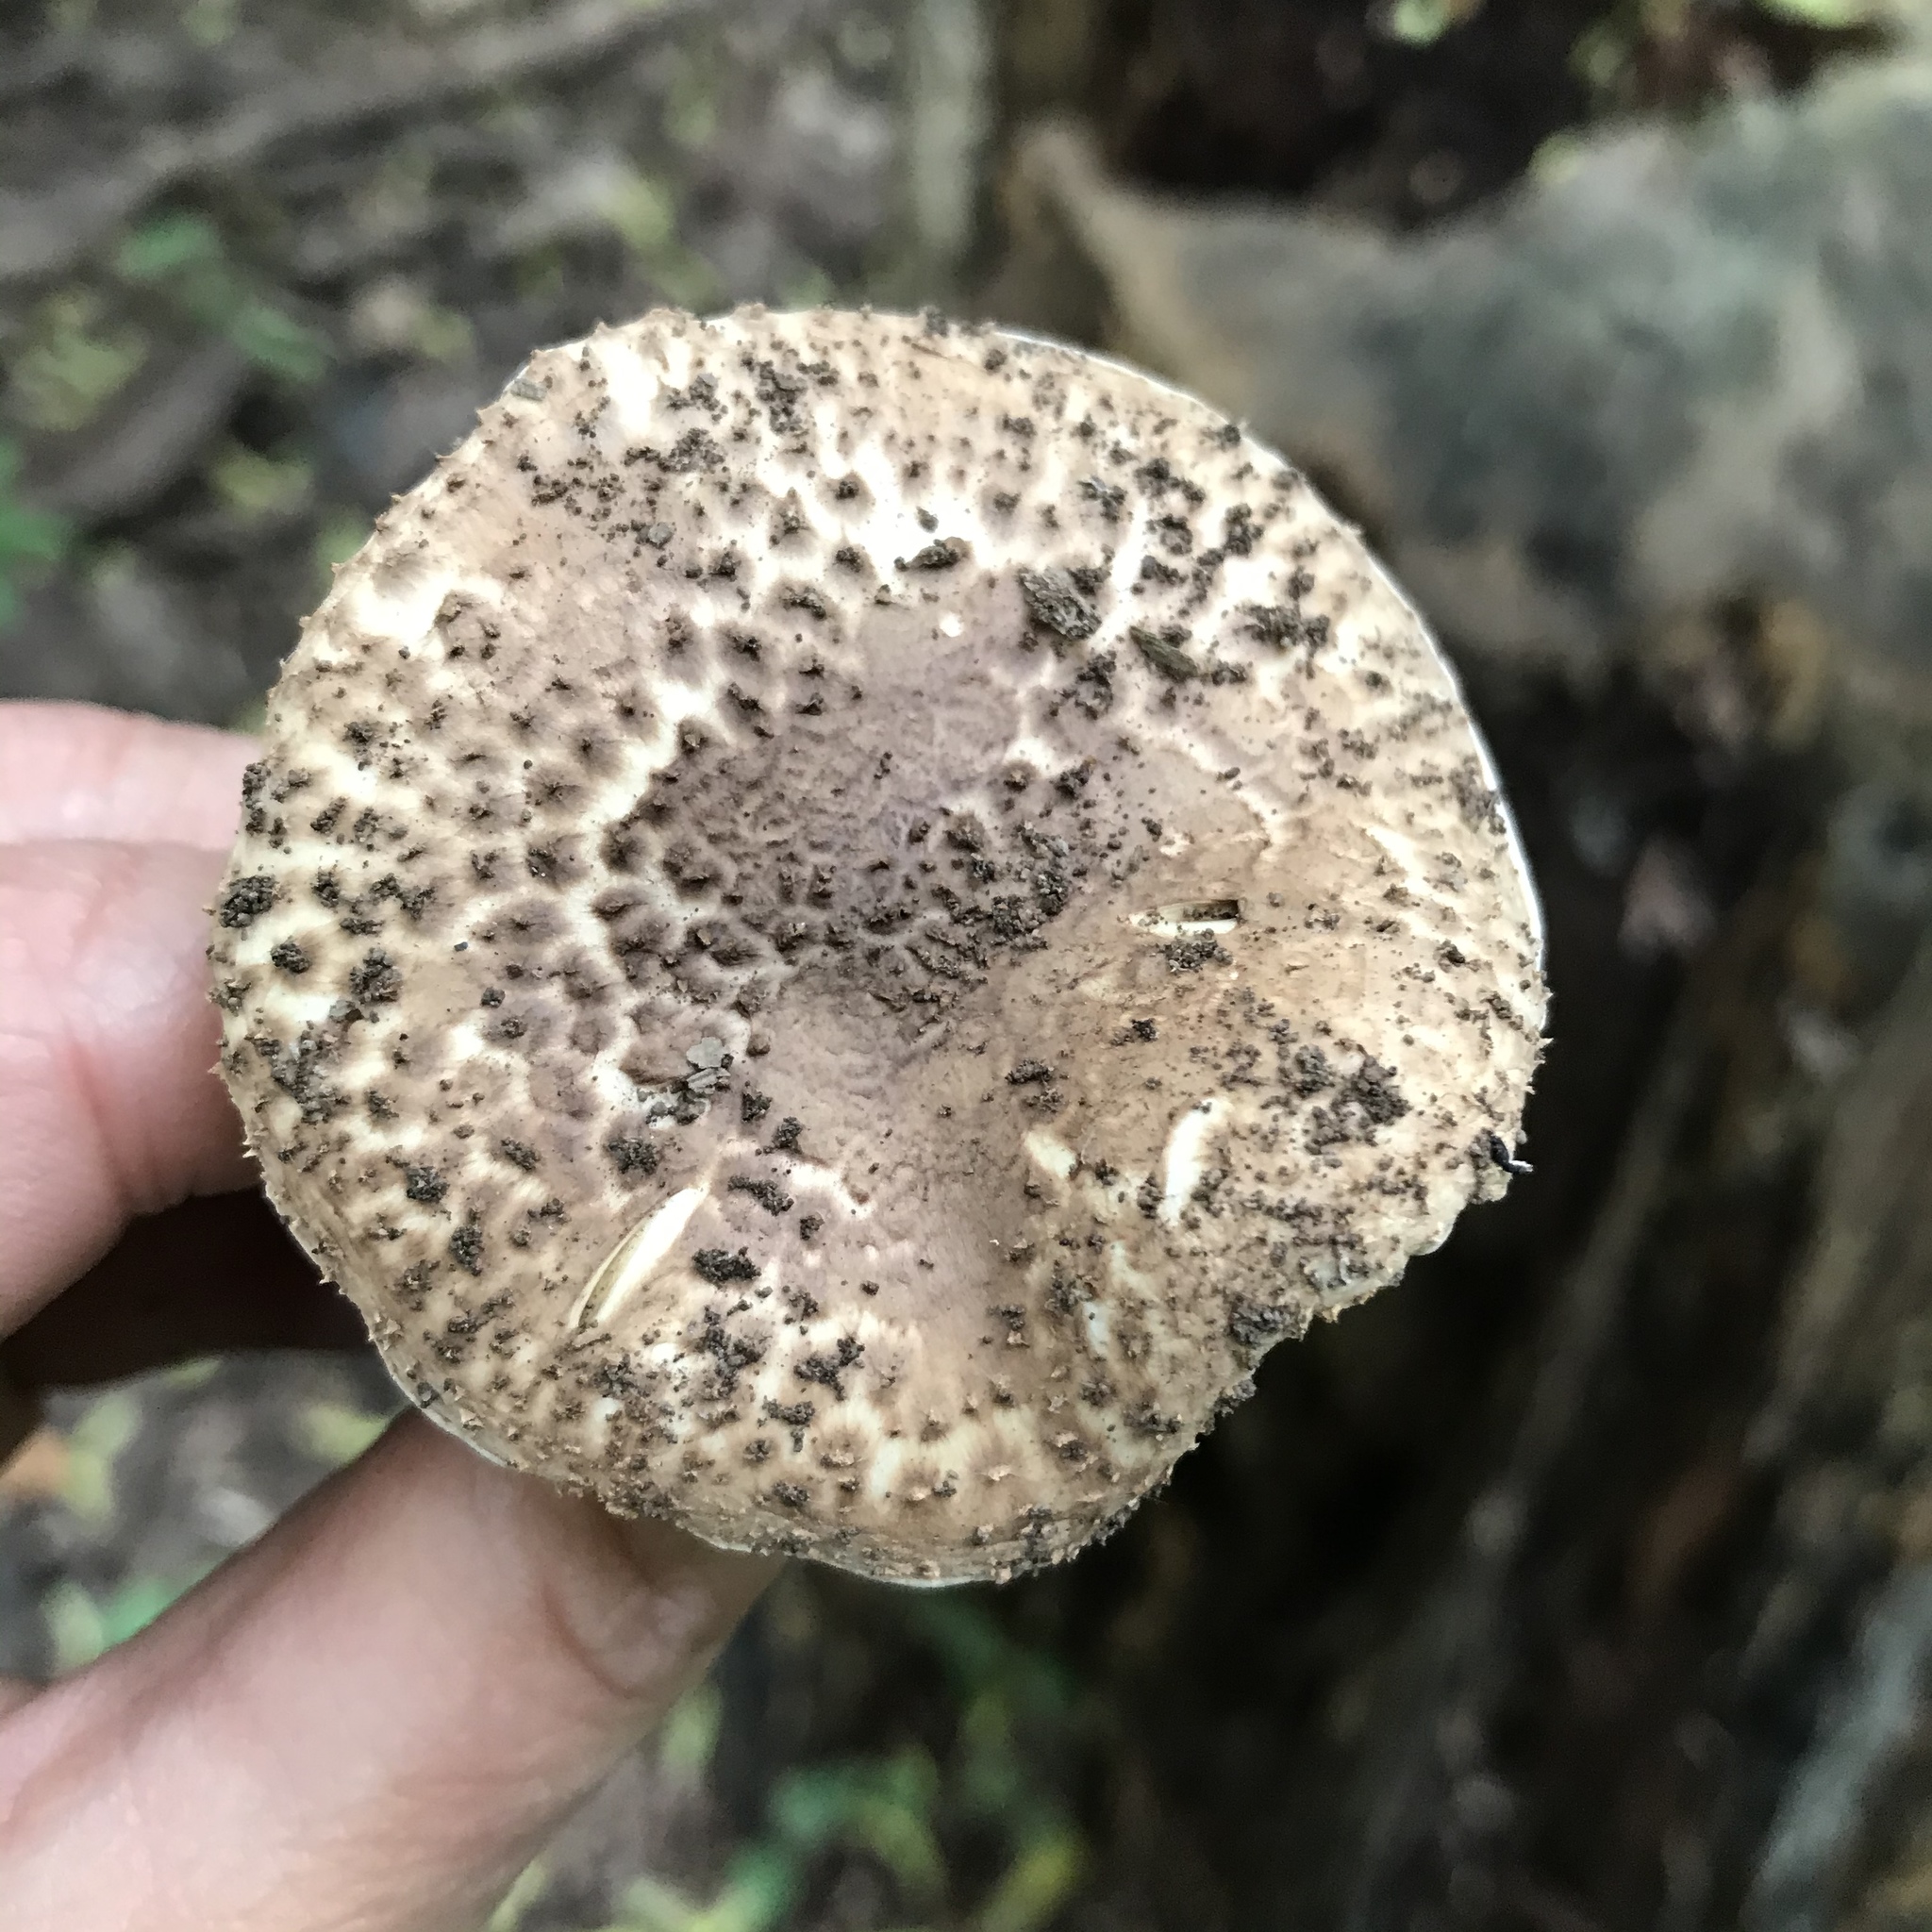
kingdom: Fungi
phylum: Basidiomycota
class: Agaricomycetes
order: Agaricales
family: Agaricaceae
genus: Echinoderma
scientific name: Echinoderma asperum
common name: Freckled dapperling
